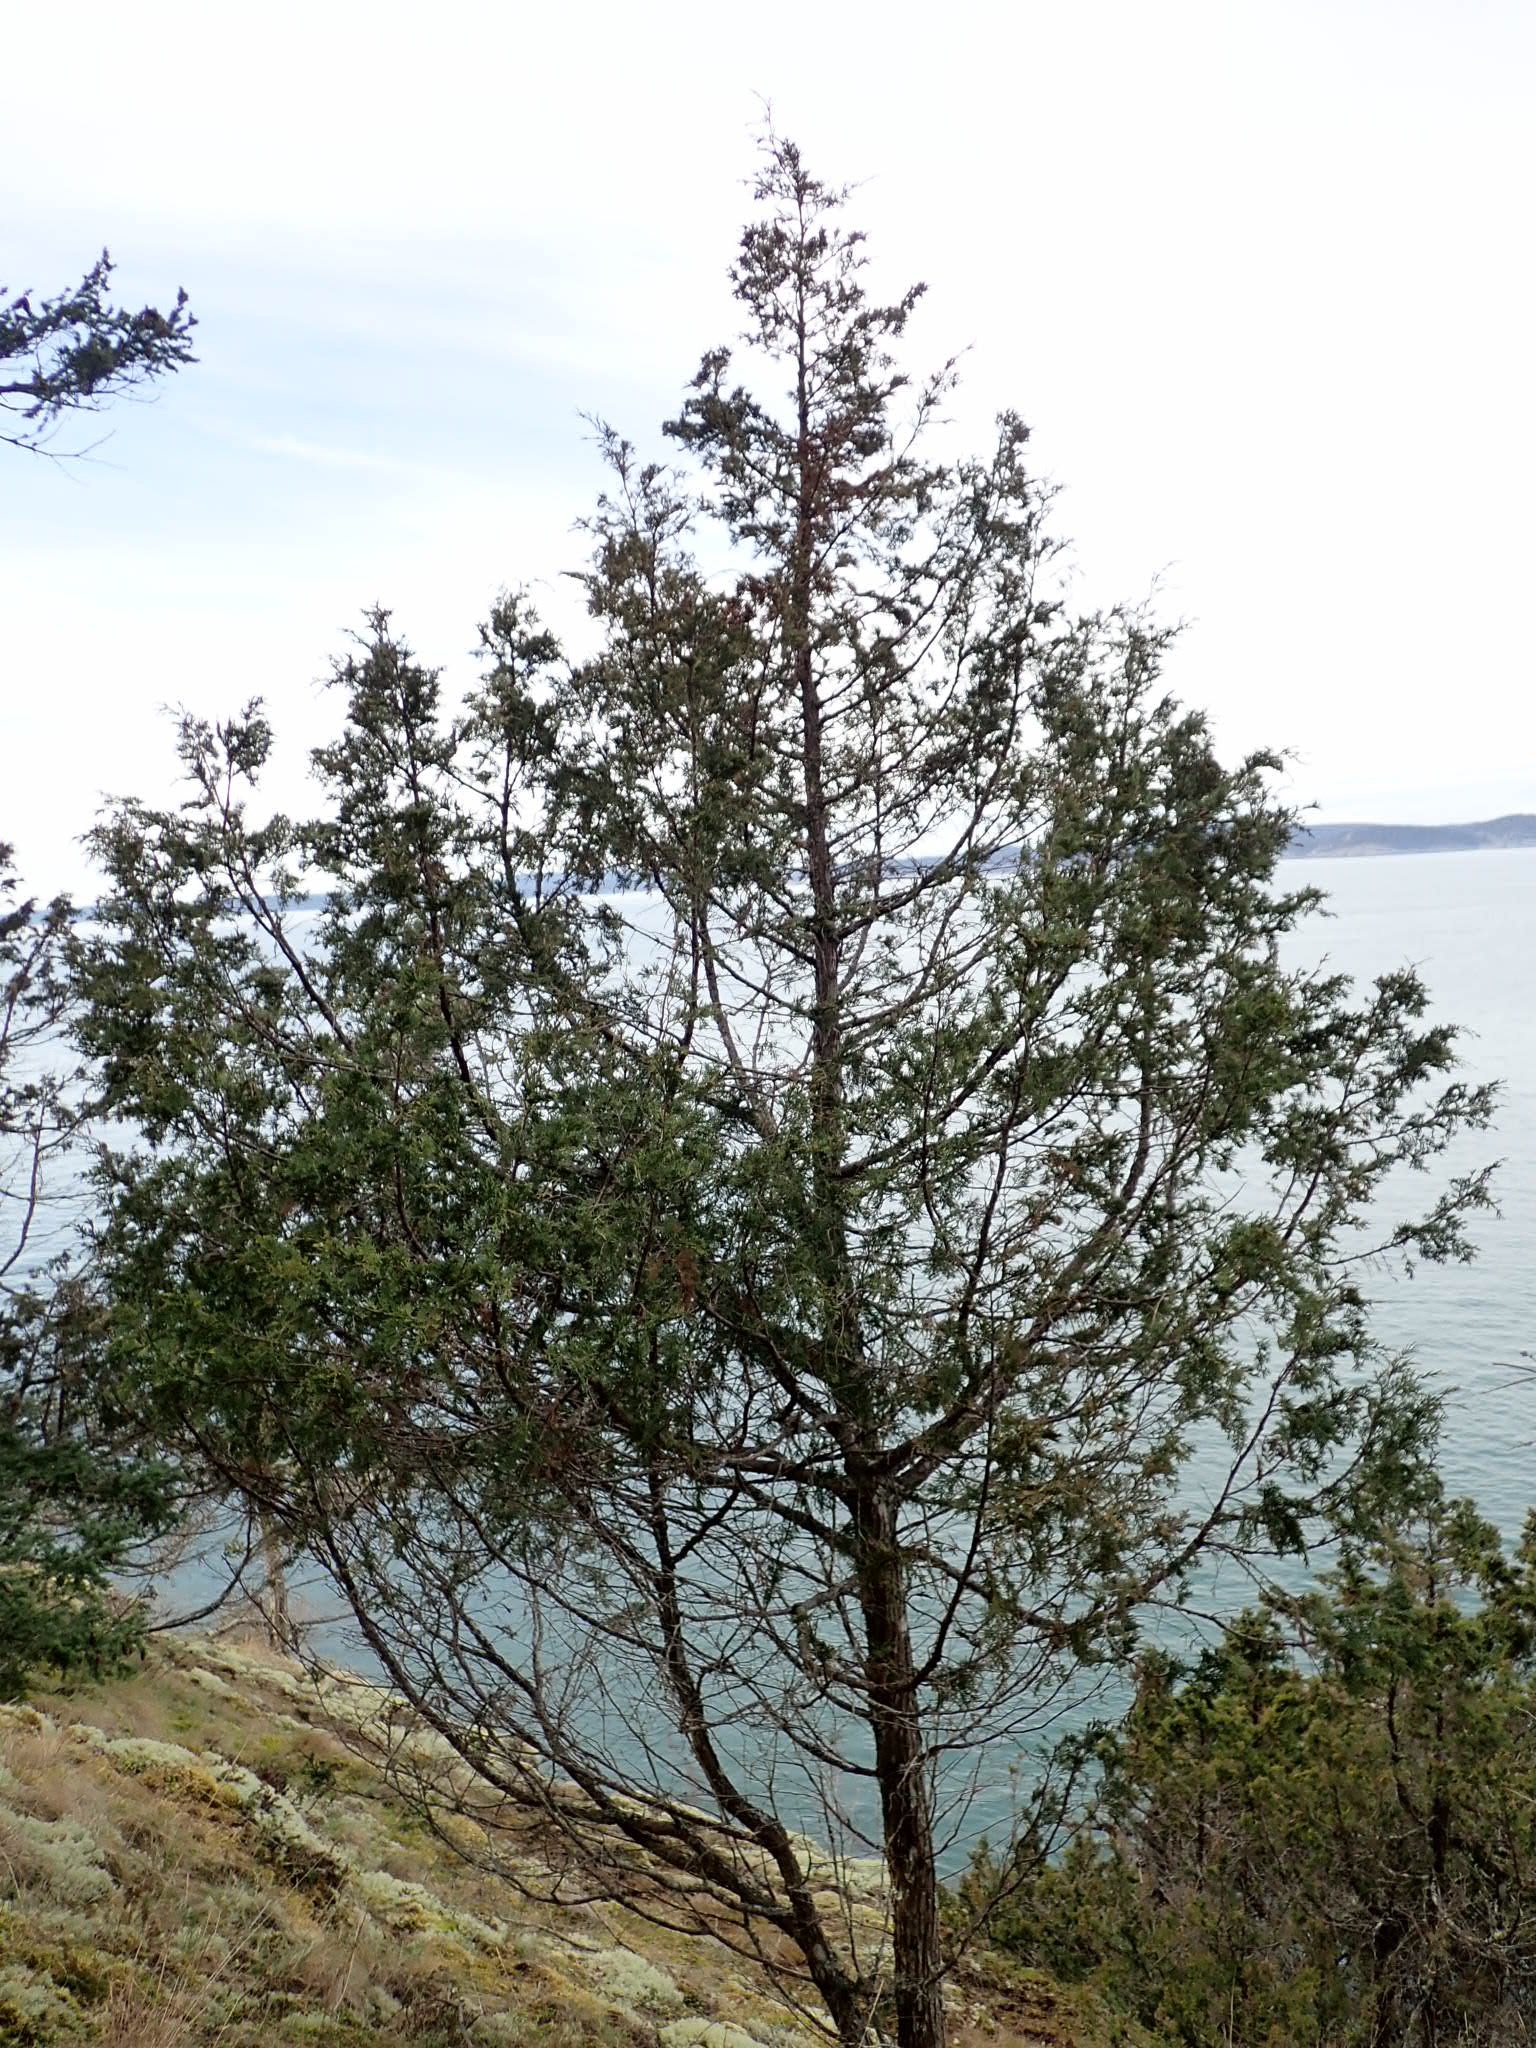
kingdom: Plantae
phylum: Tracheophyta
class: Pinopsida
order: Pinales
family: Cupressaceae
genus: Juniperus
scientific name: Juniperus scopulorum
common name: Rocky mountain juniper
